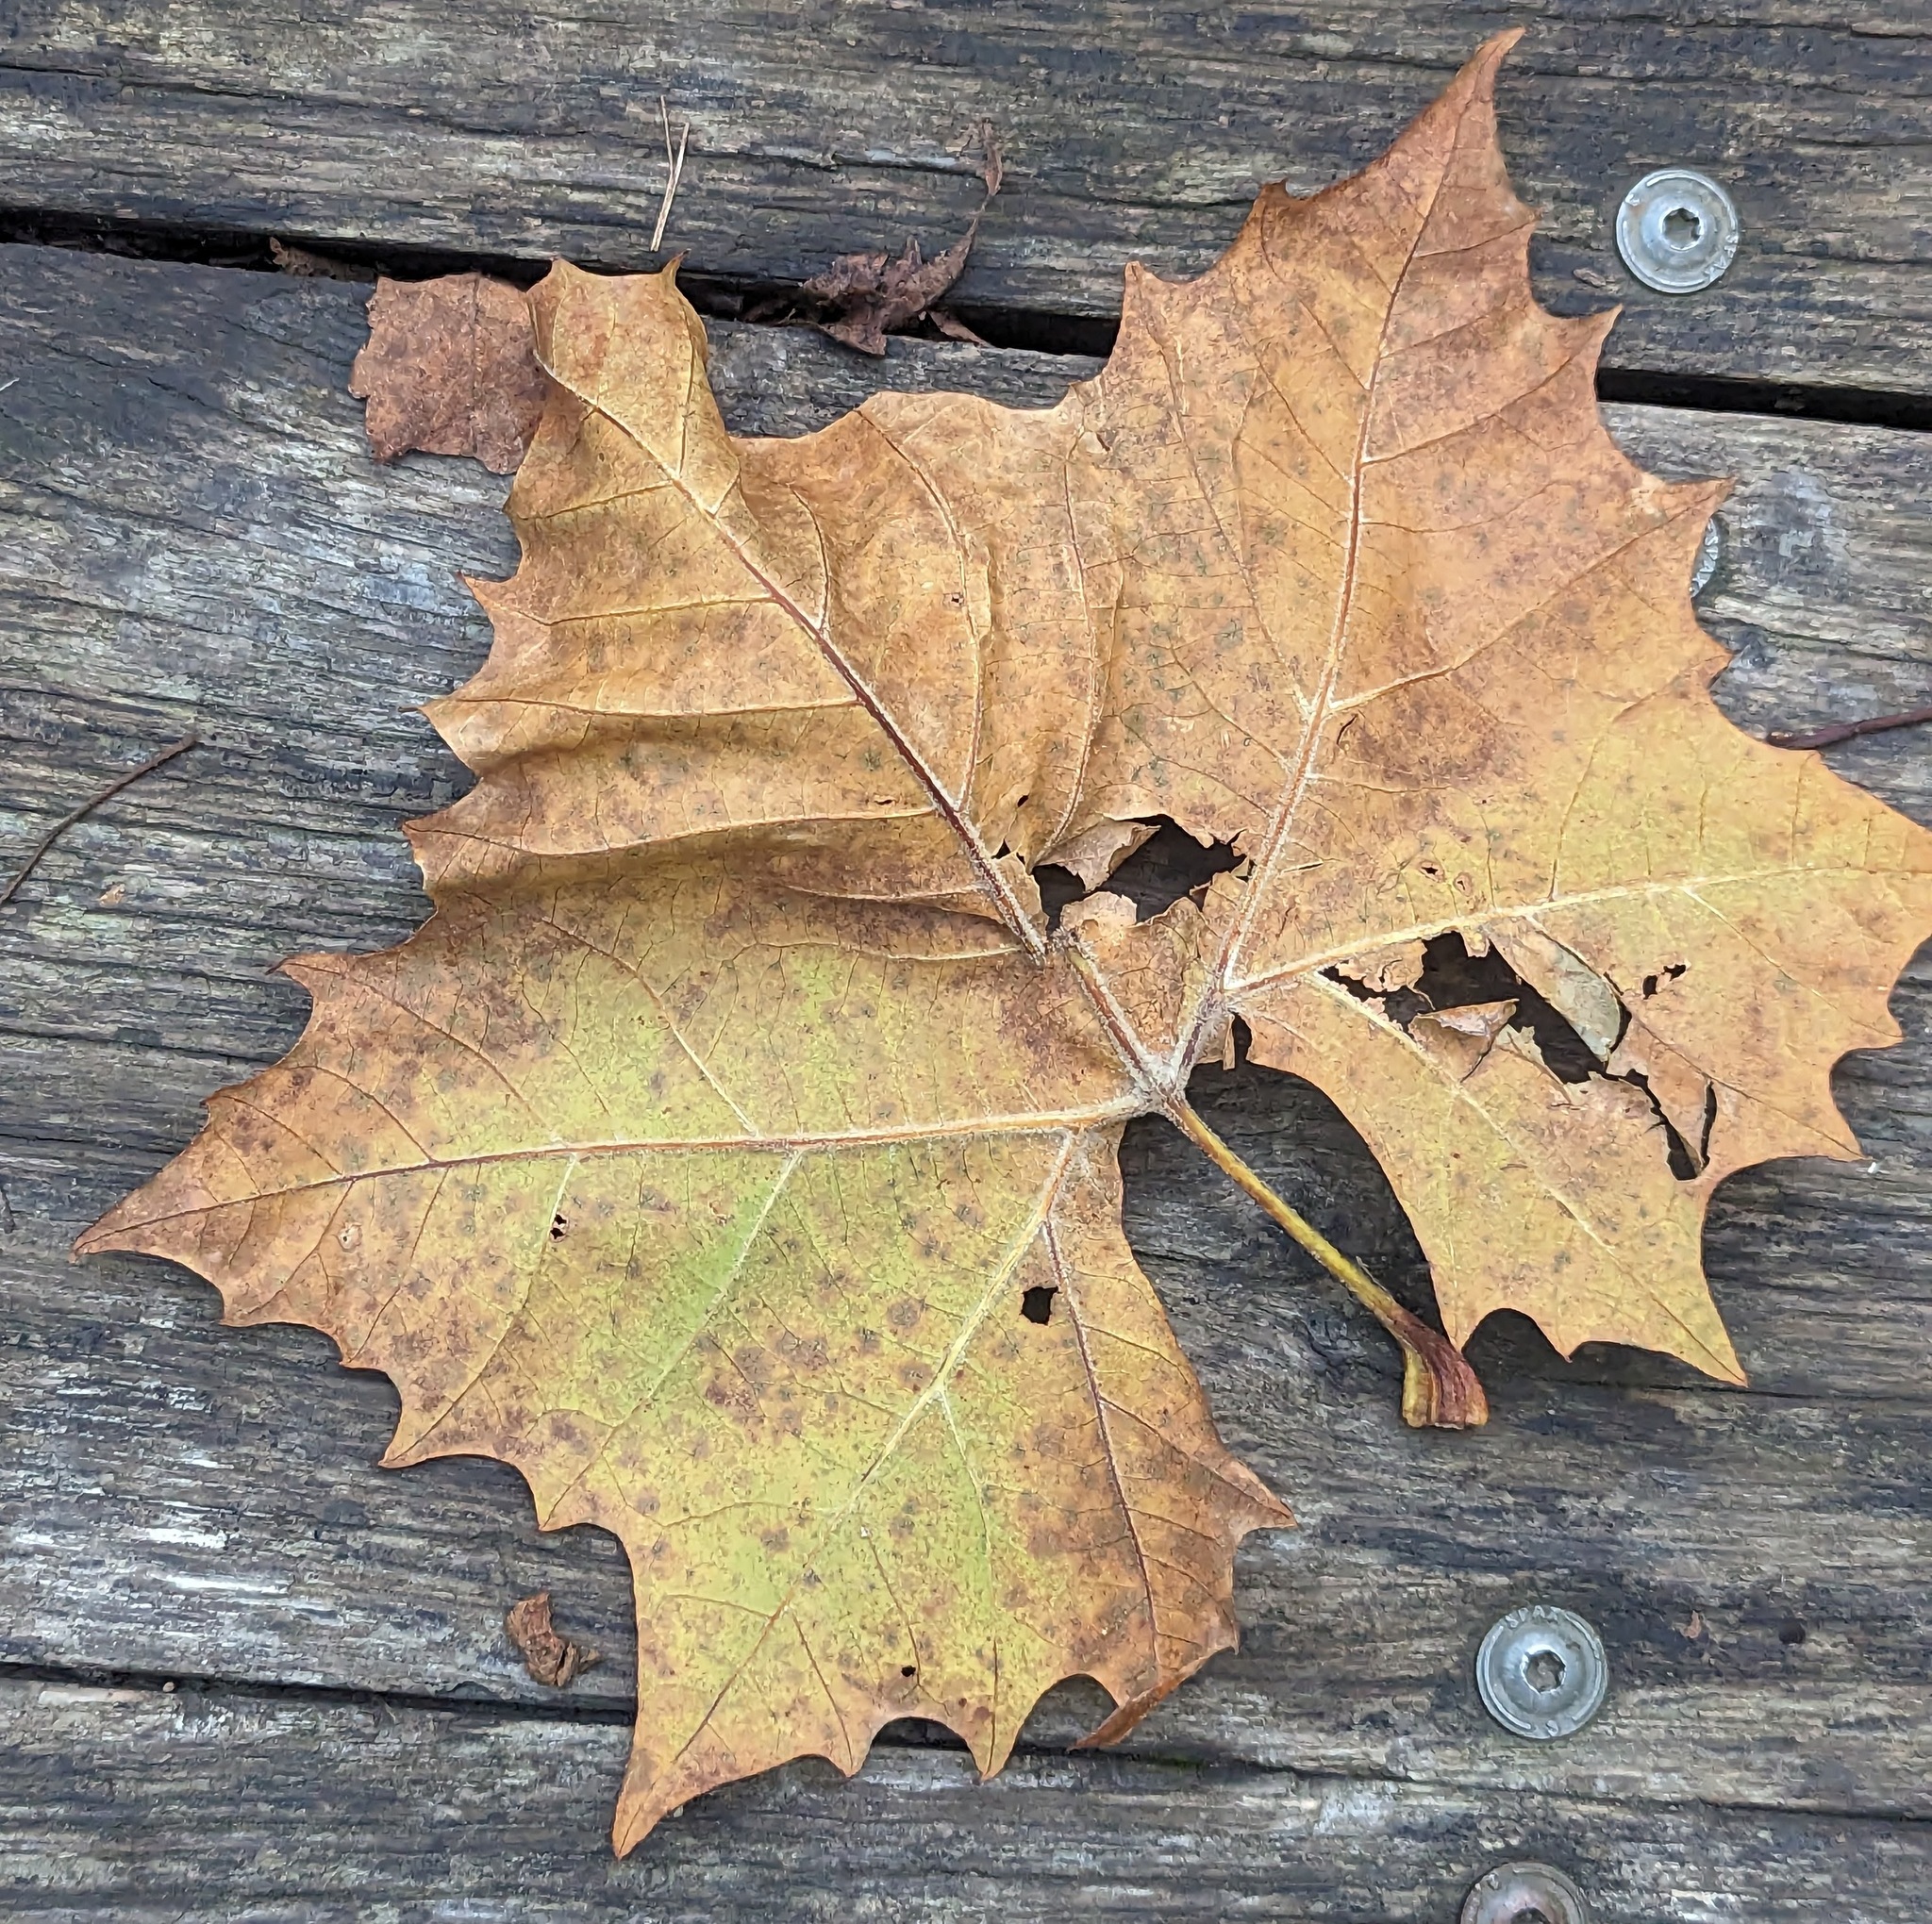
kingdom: Plantae
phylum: Tracheophyta
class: Magnoliopsida
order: Proteales
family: Platanaceae
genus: Platanus
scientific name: Platanus occidentalis
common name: American sycamore
